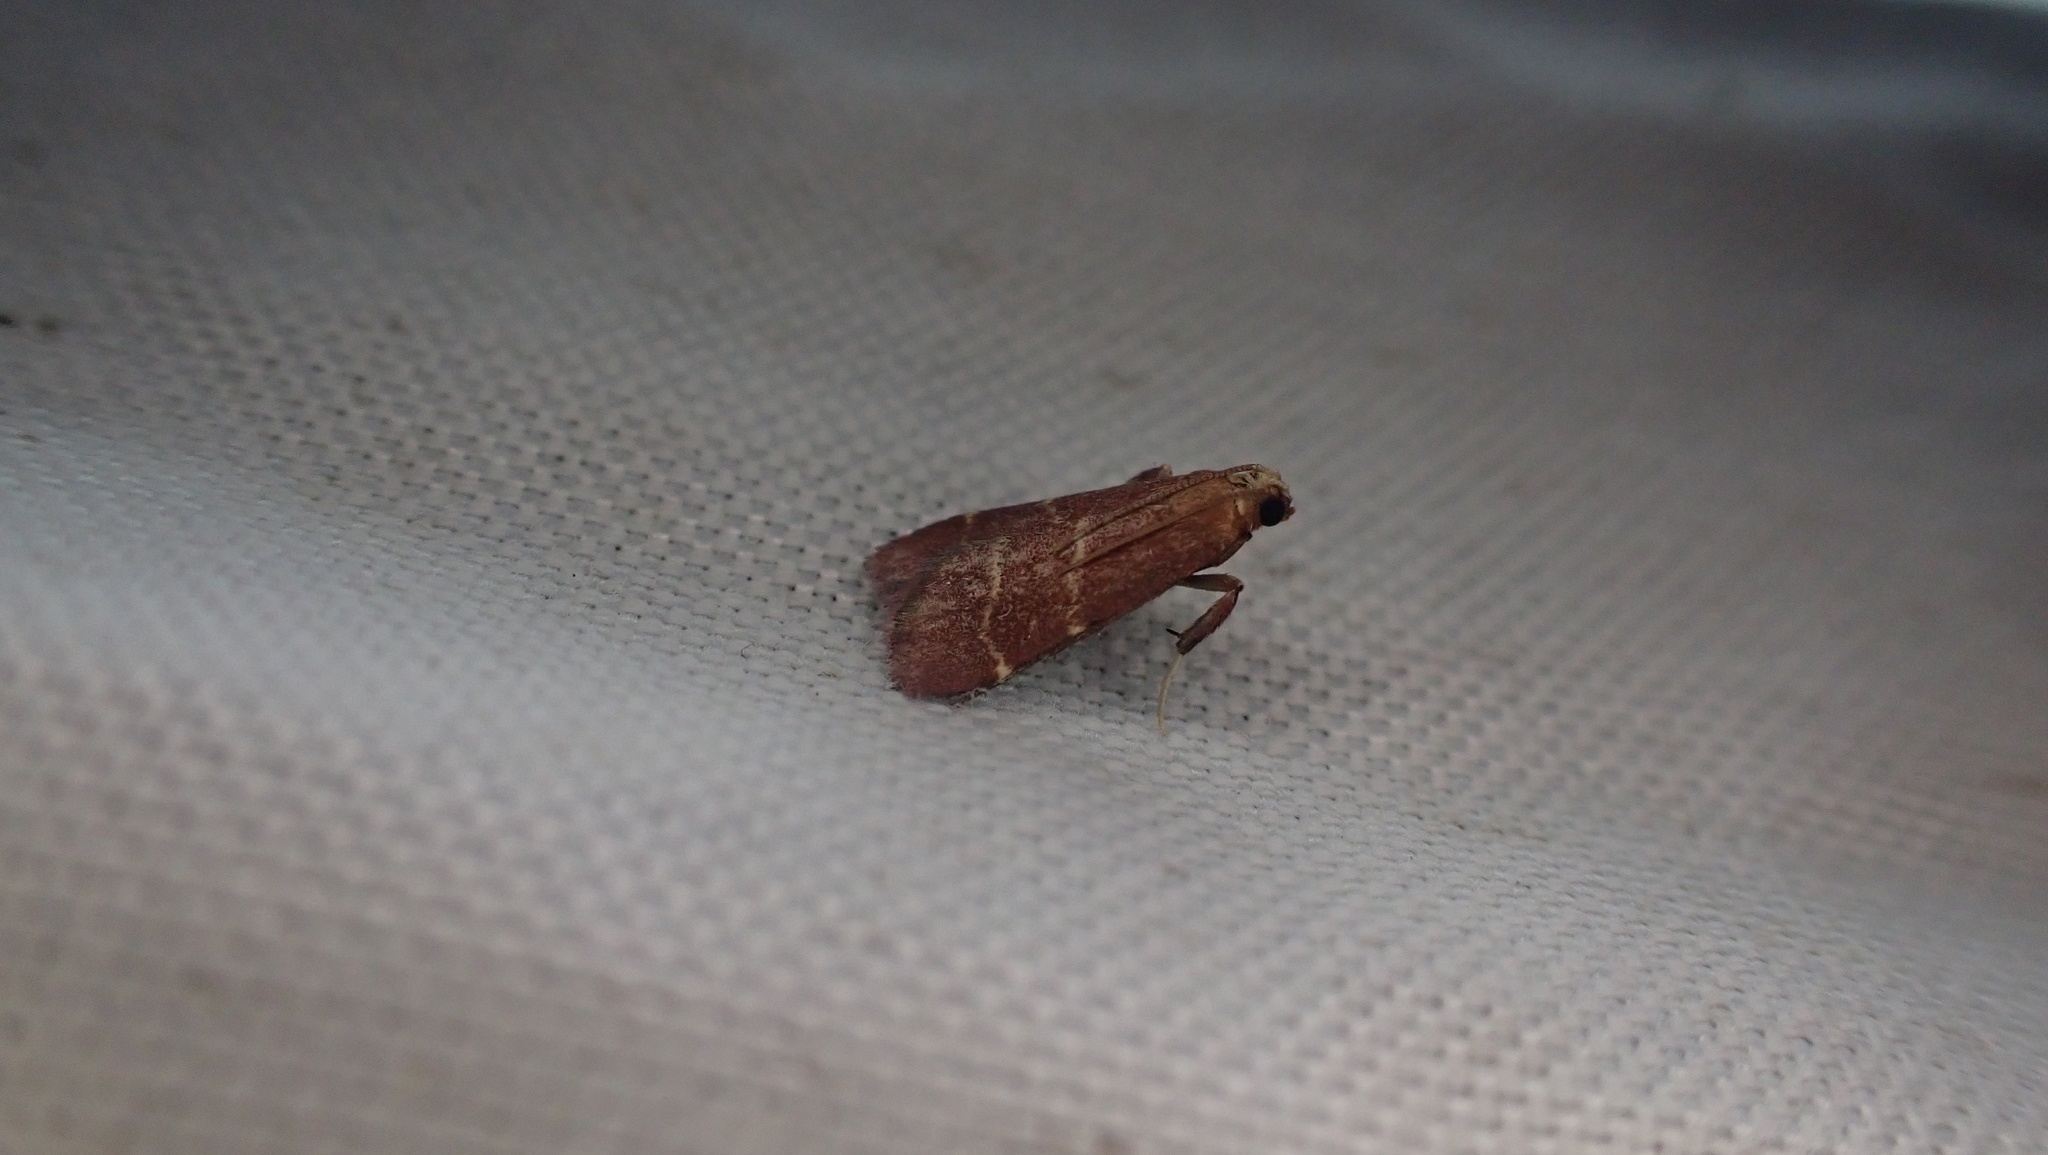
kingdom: Animalia
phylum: Arthropoda
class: Insecta
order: Lepidoptera
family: Pyralidae
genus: Arta
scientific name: Arta statalis
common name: Posturing arta moth
